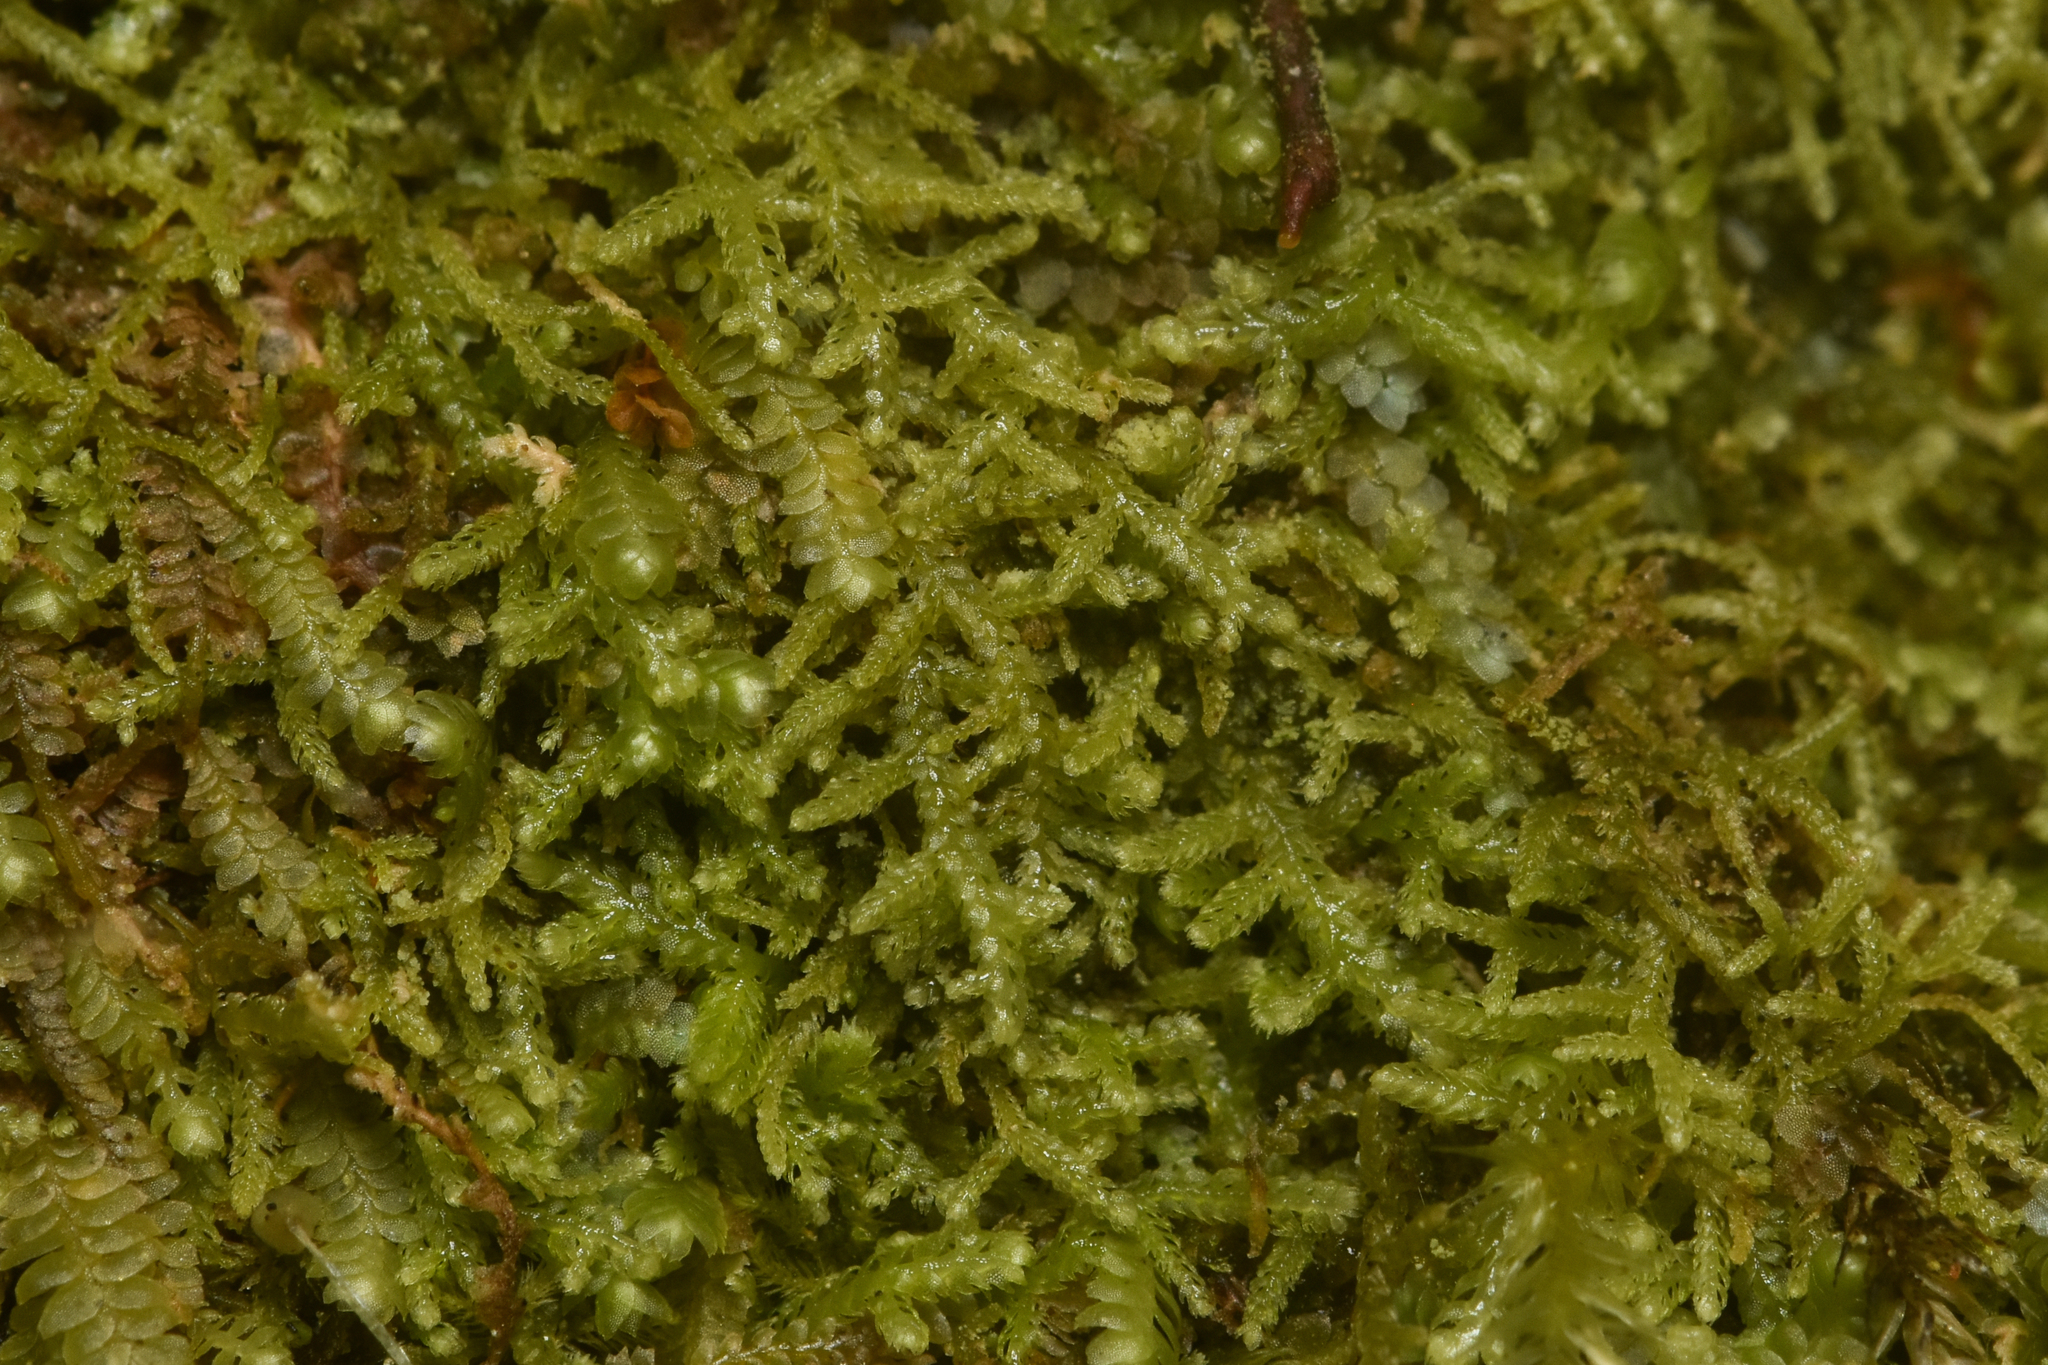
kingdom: Plantae
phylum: Marchantiophyta
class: Jungermanniopsida
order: Jungermanniales
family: Lepidoziaceae
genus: Lepidozia
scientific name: Lepidozia reptans
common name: Creeping fingerwort
